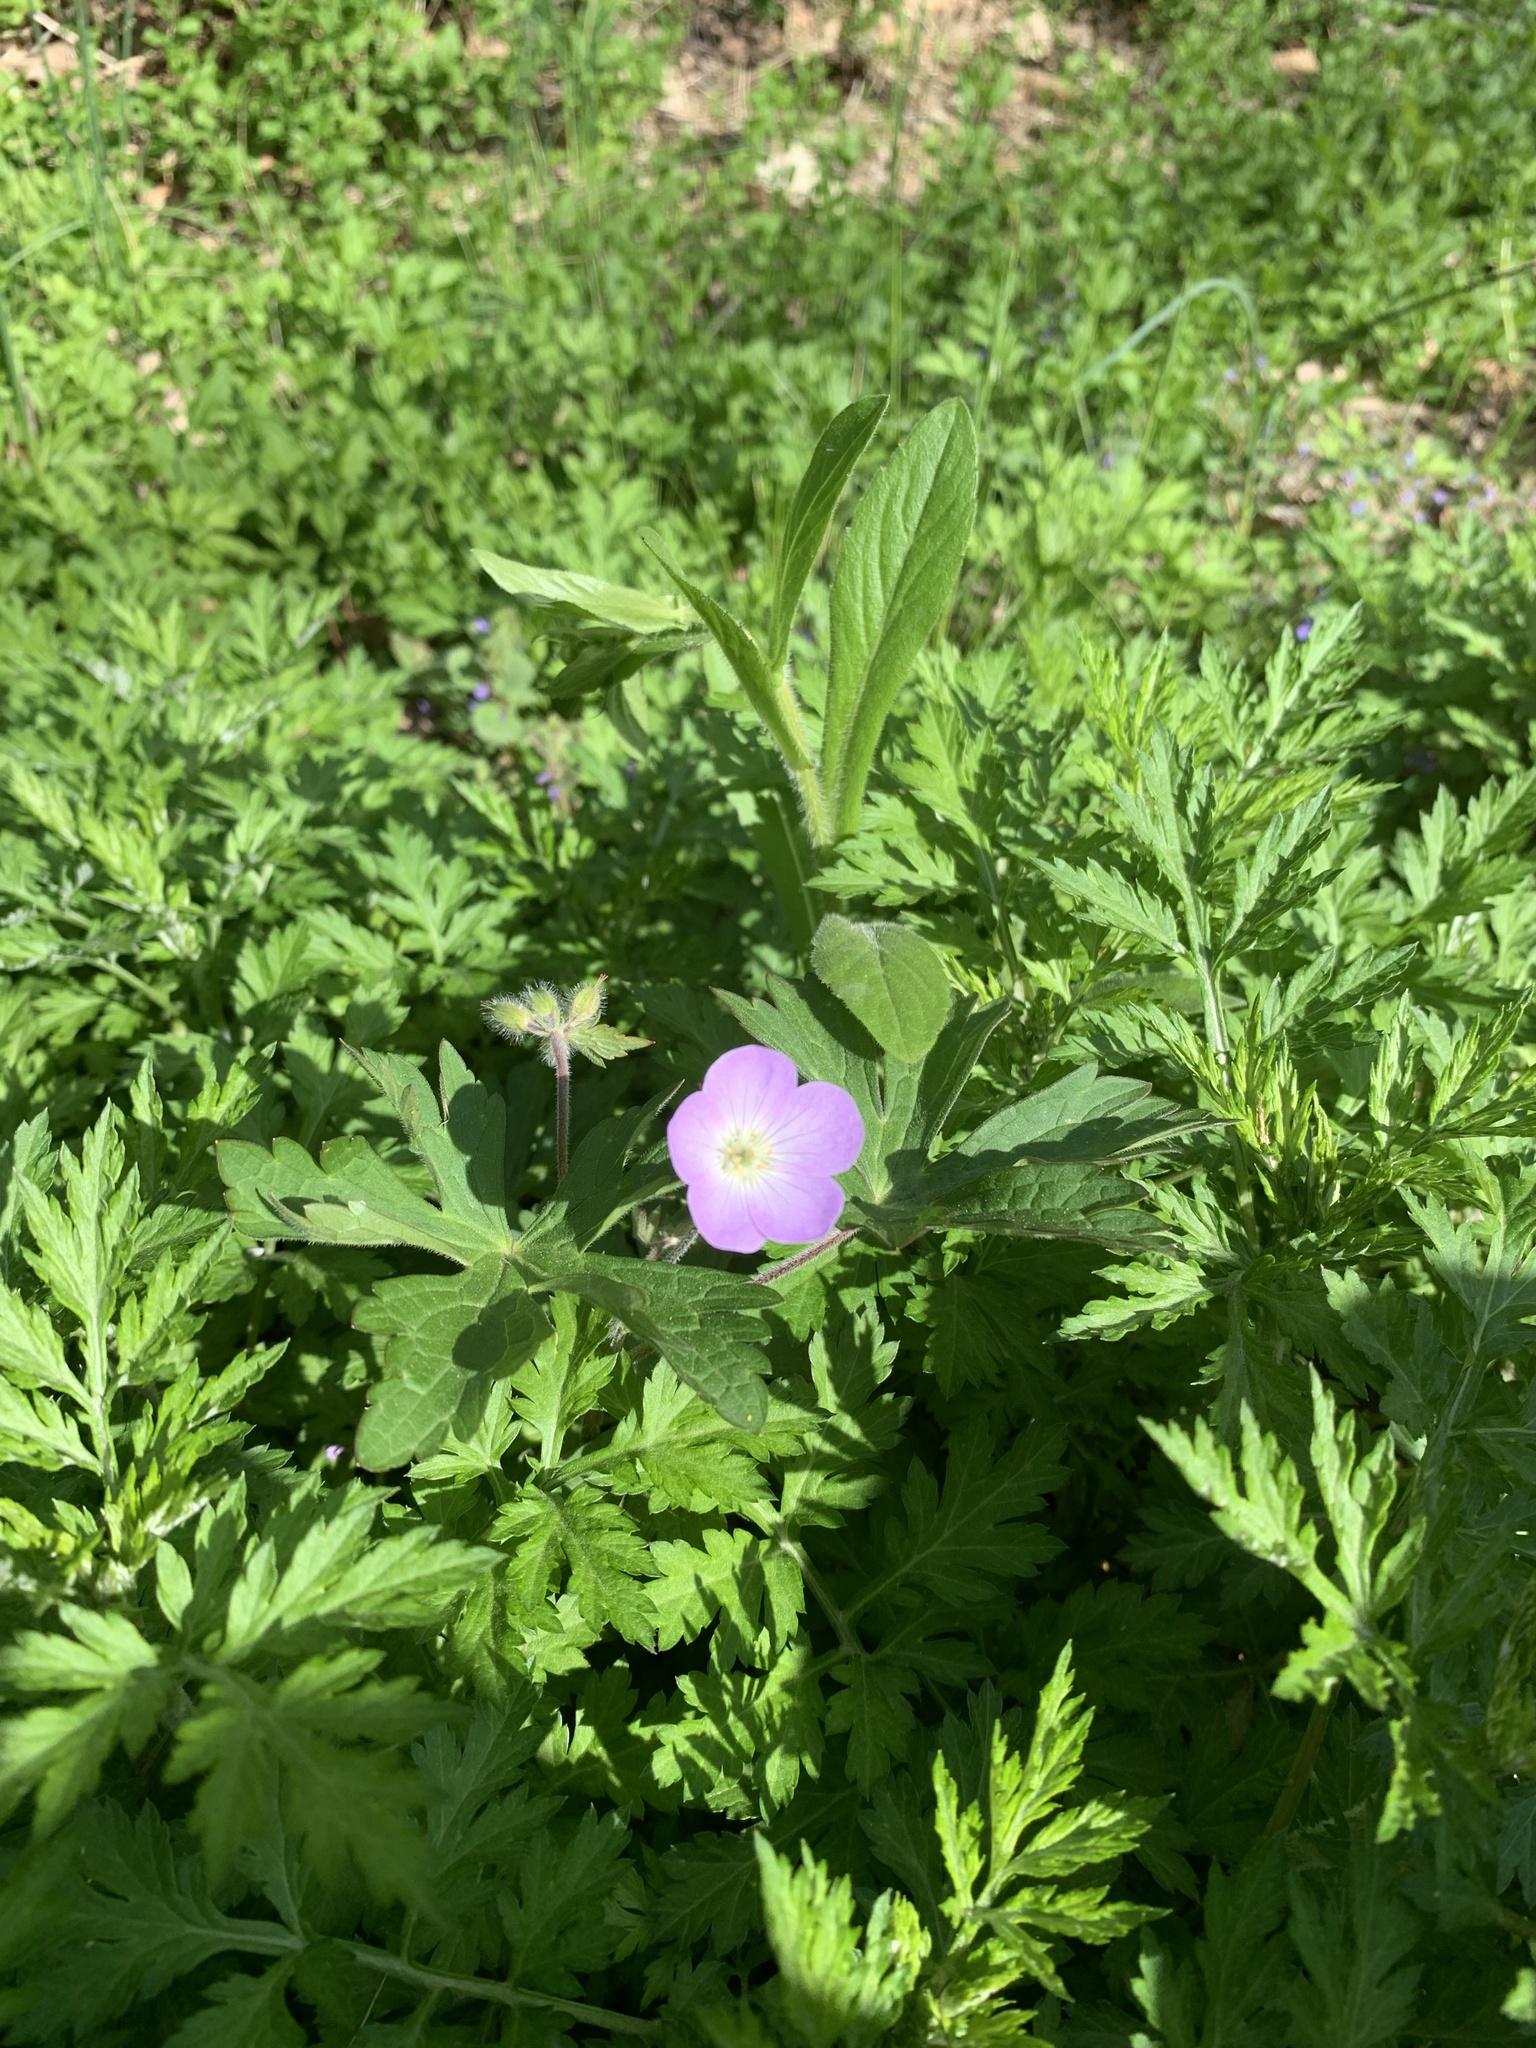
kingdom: Plantae
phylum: Tracheophyta
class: Magnoliopsida
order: Geraniales
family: Geraniaceae
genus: Geranium
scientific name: Geranium maculatum
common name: Spotted geranium
